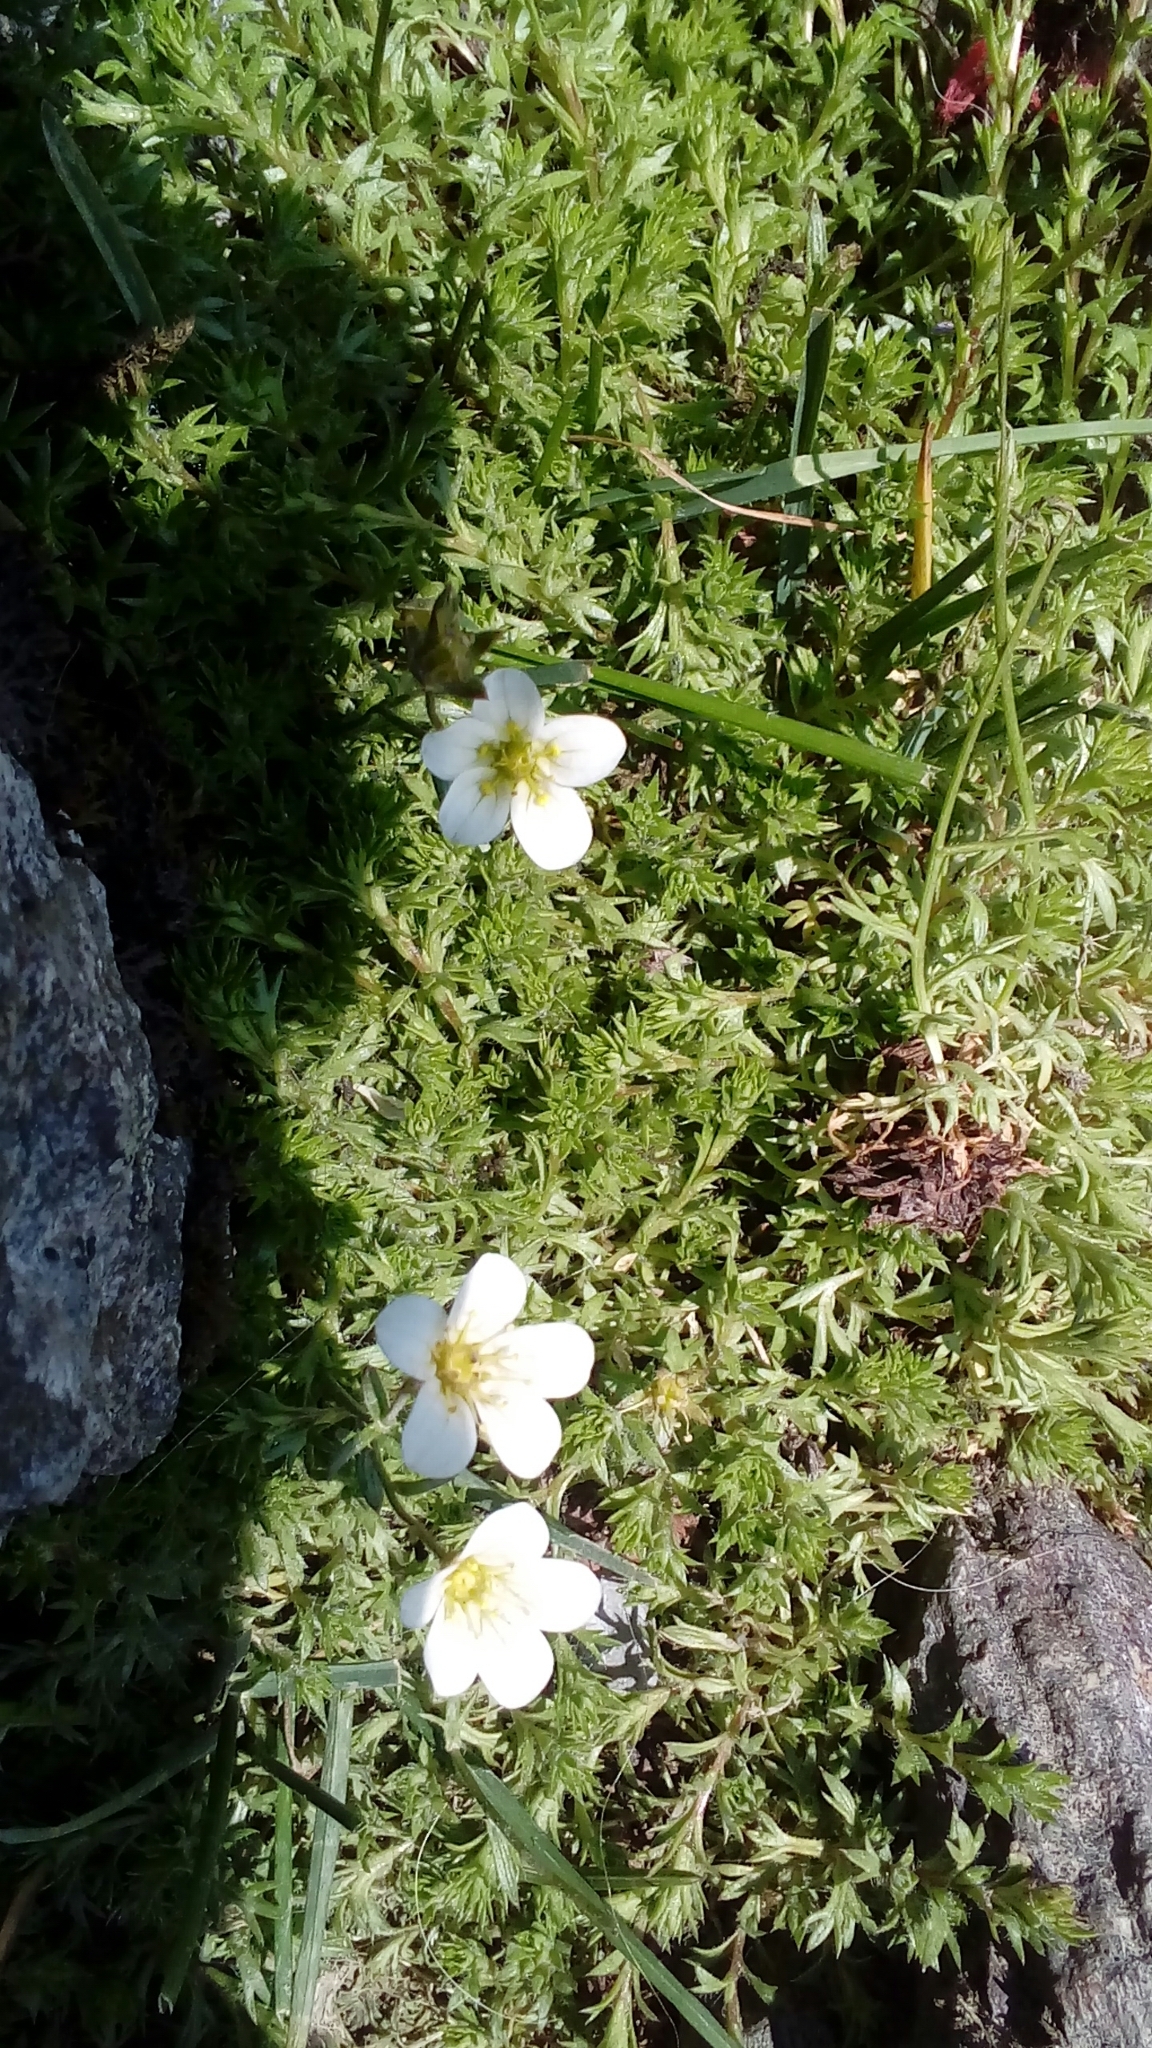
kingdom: Plantae
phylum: Tracheophyta
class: Magnoliopsida
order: Saxifragales
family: Saxifragaceae
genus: Saxifraga
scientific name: Saxifraga hypnoides
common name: Mossy saxifrage
